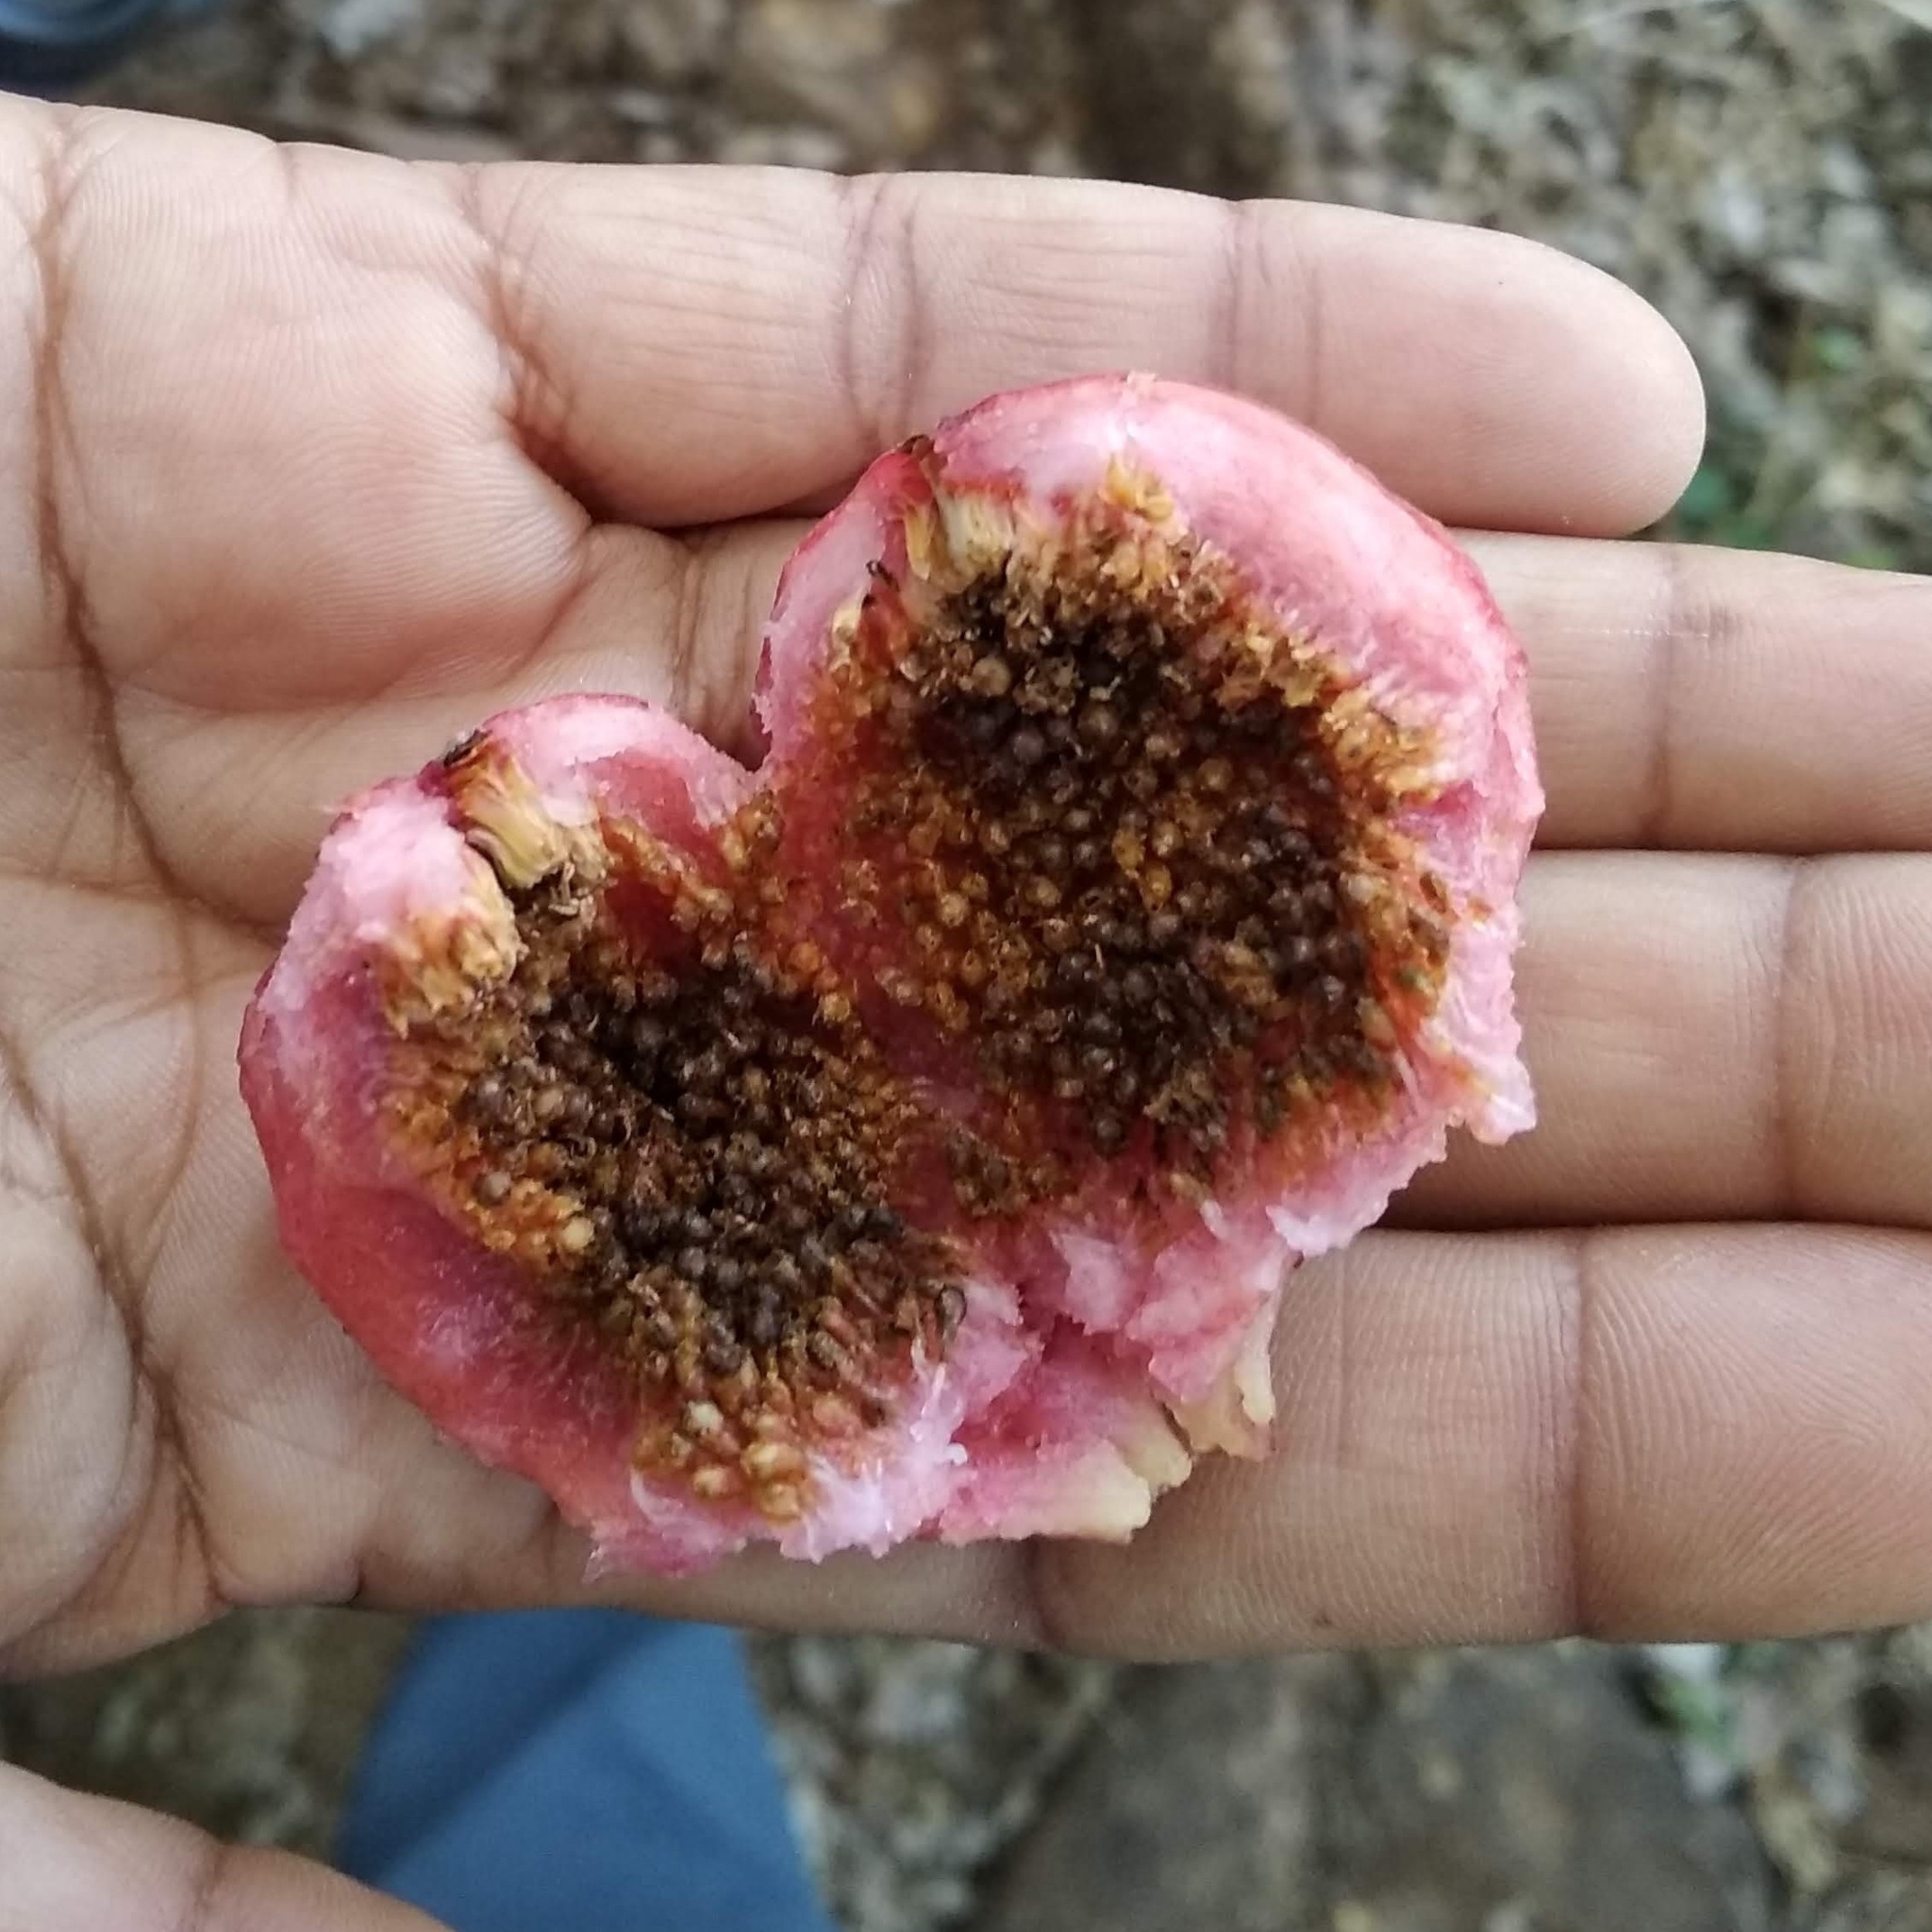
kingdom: Plantae
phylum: Tracheophyta
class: Magnoliopsida
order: Rosales
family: Moraceae
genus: Ficus
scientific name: Ficus racemosa
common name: Cluster fig
